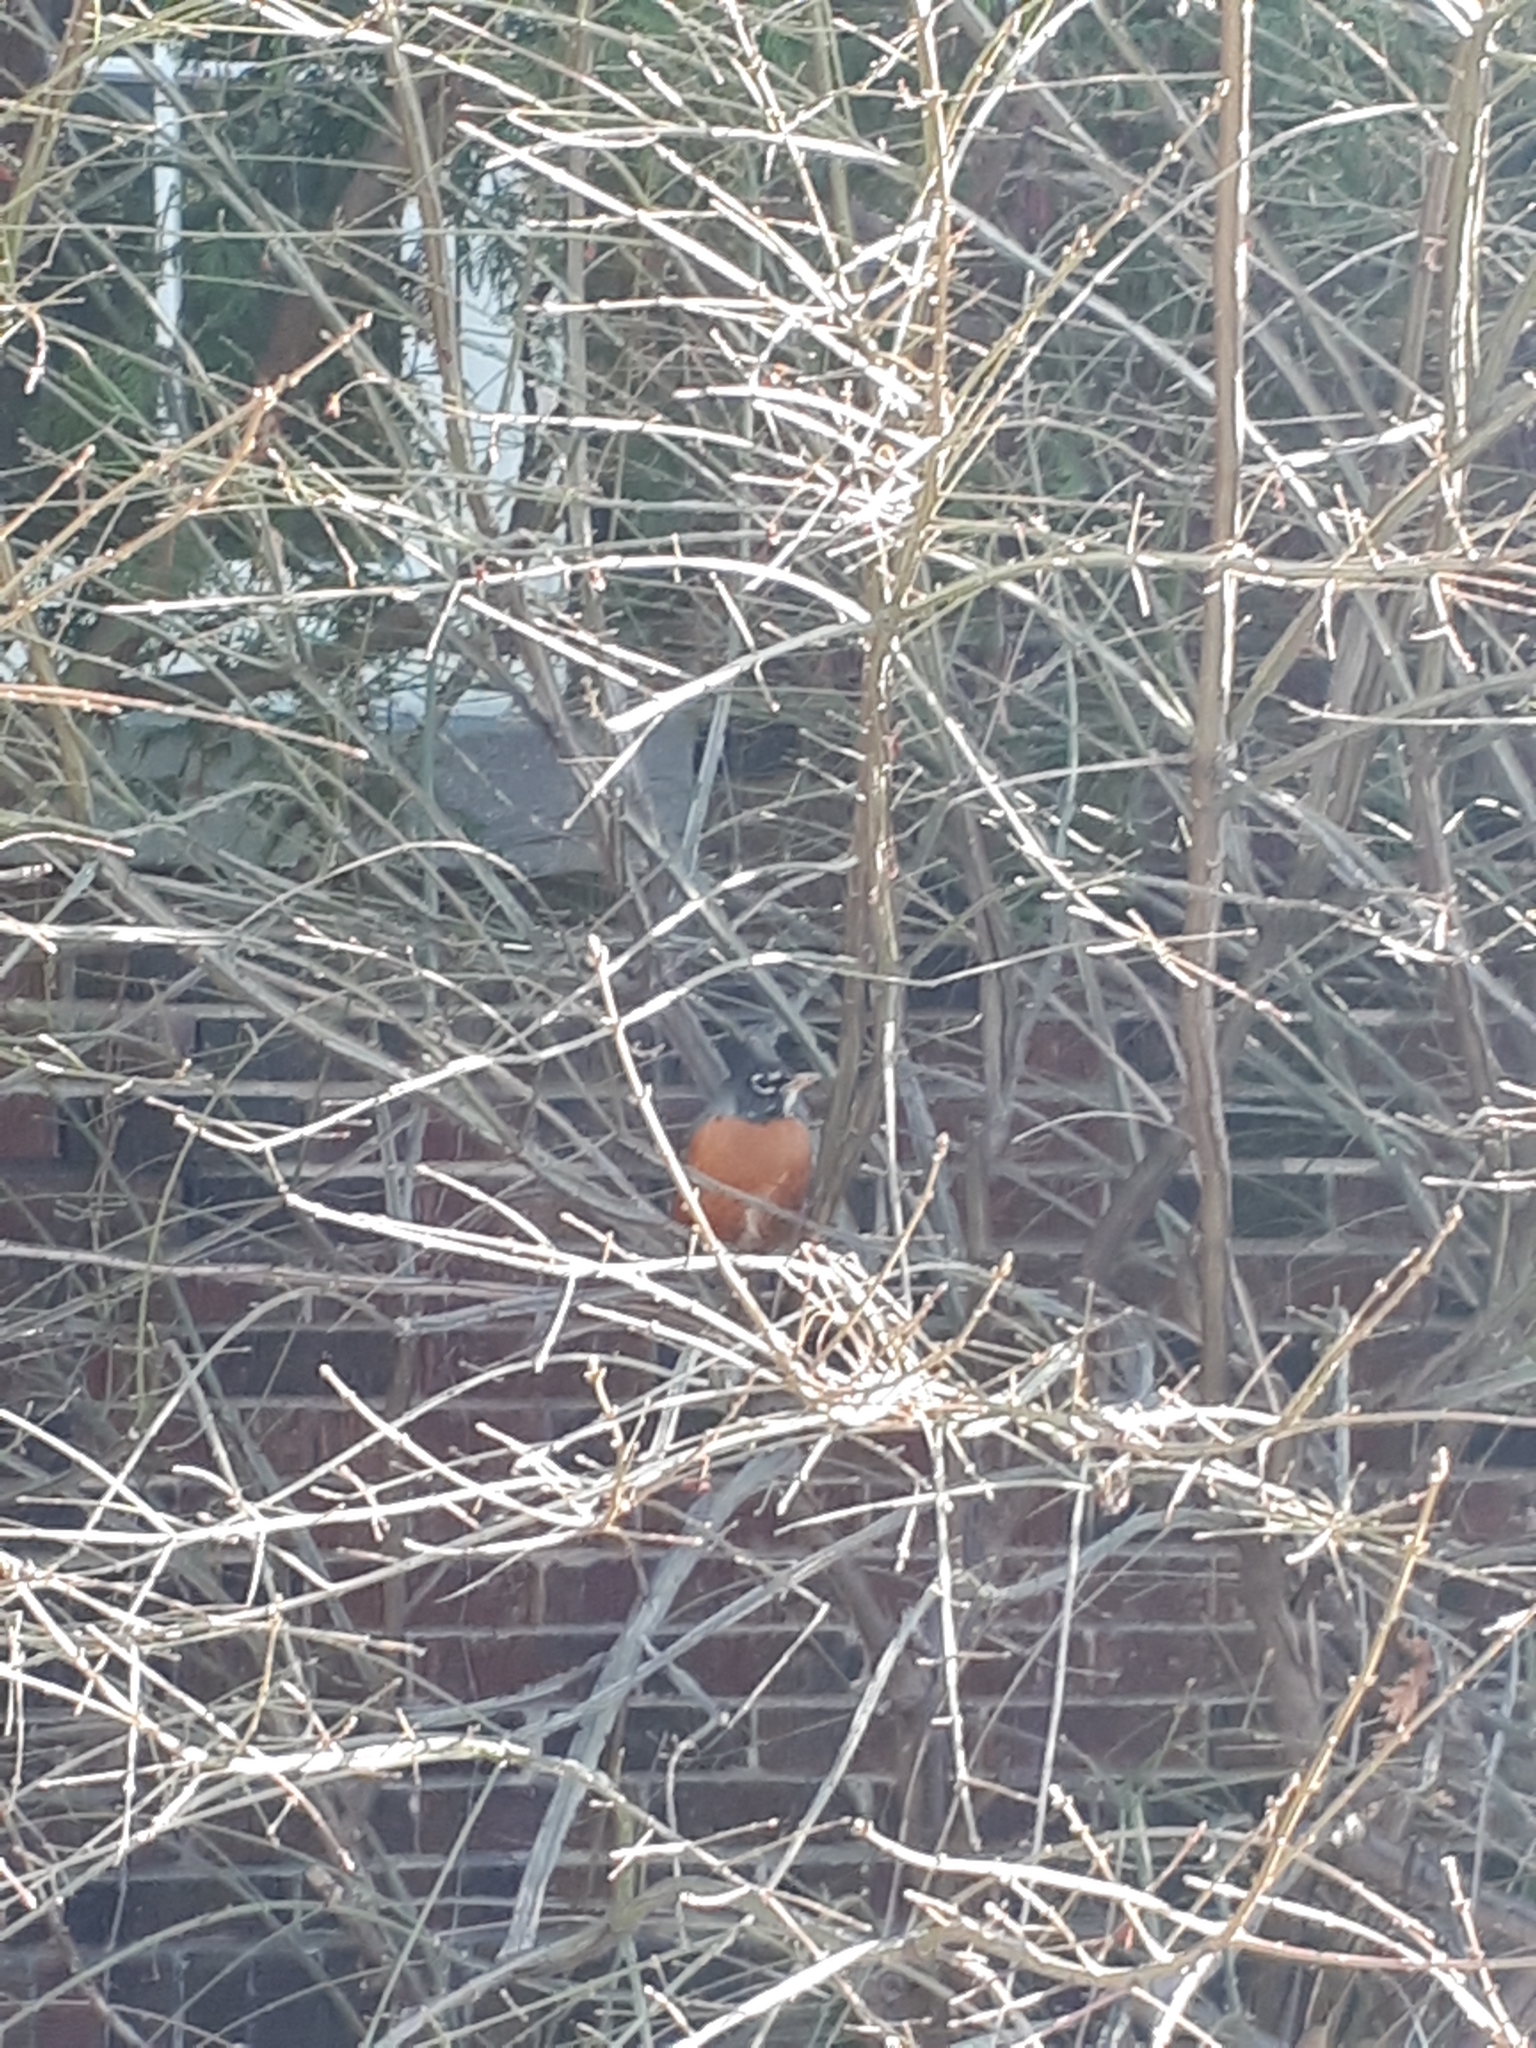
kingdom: Animalia
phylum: Chordata
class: Aves
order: Passeriformes
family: Turdidae
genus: Turdus
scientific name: Turdus migratorius
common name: American robin
